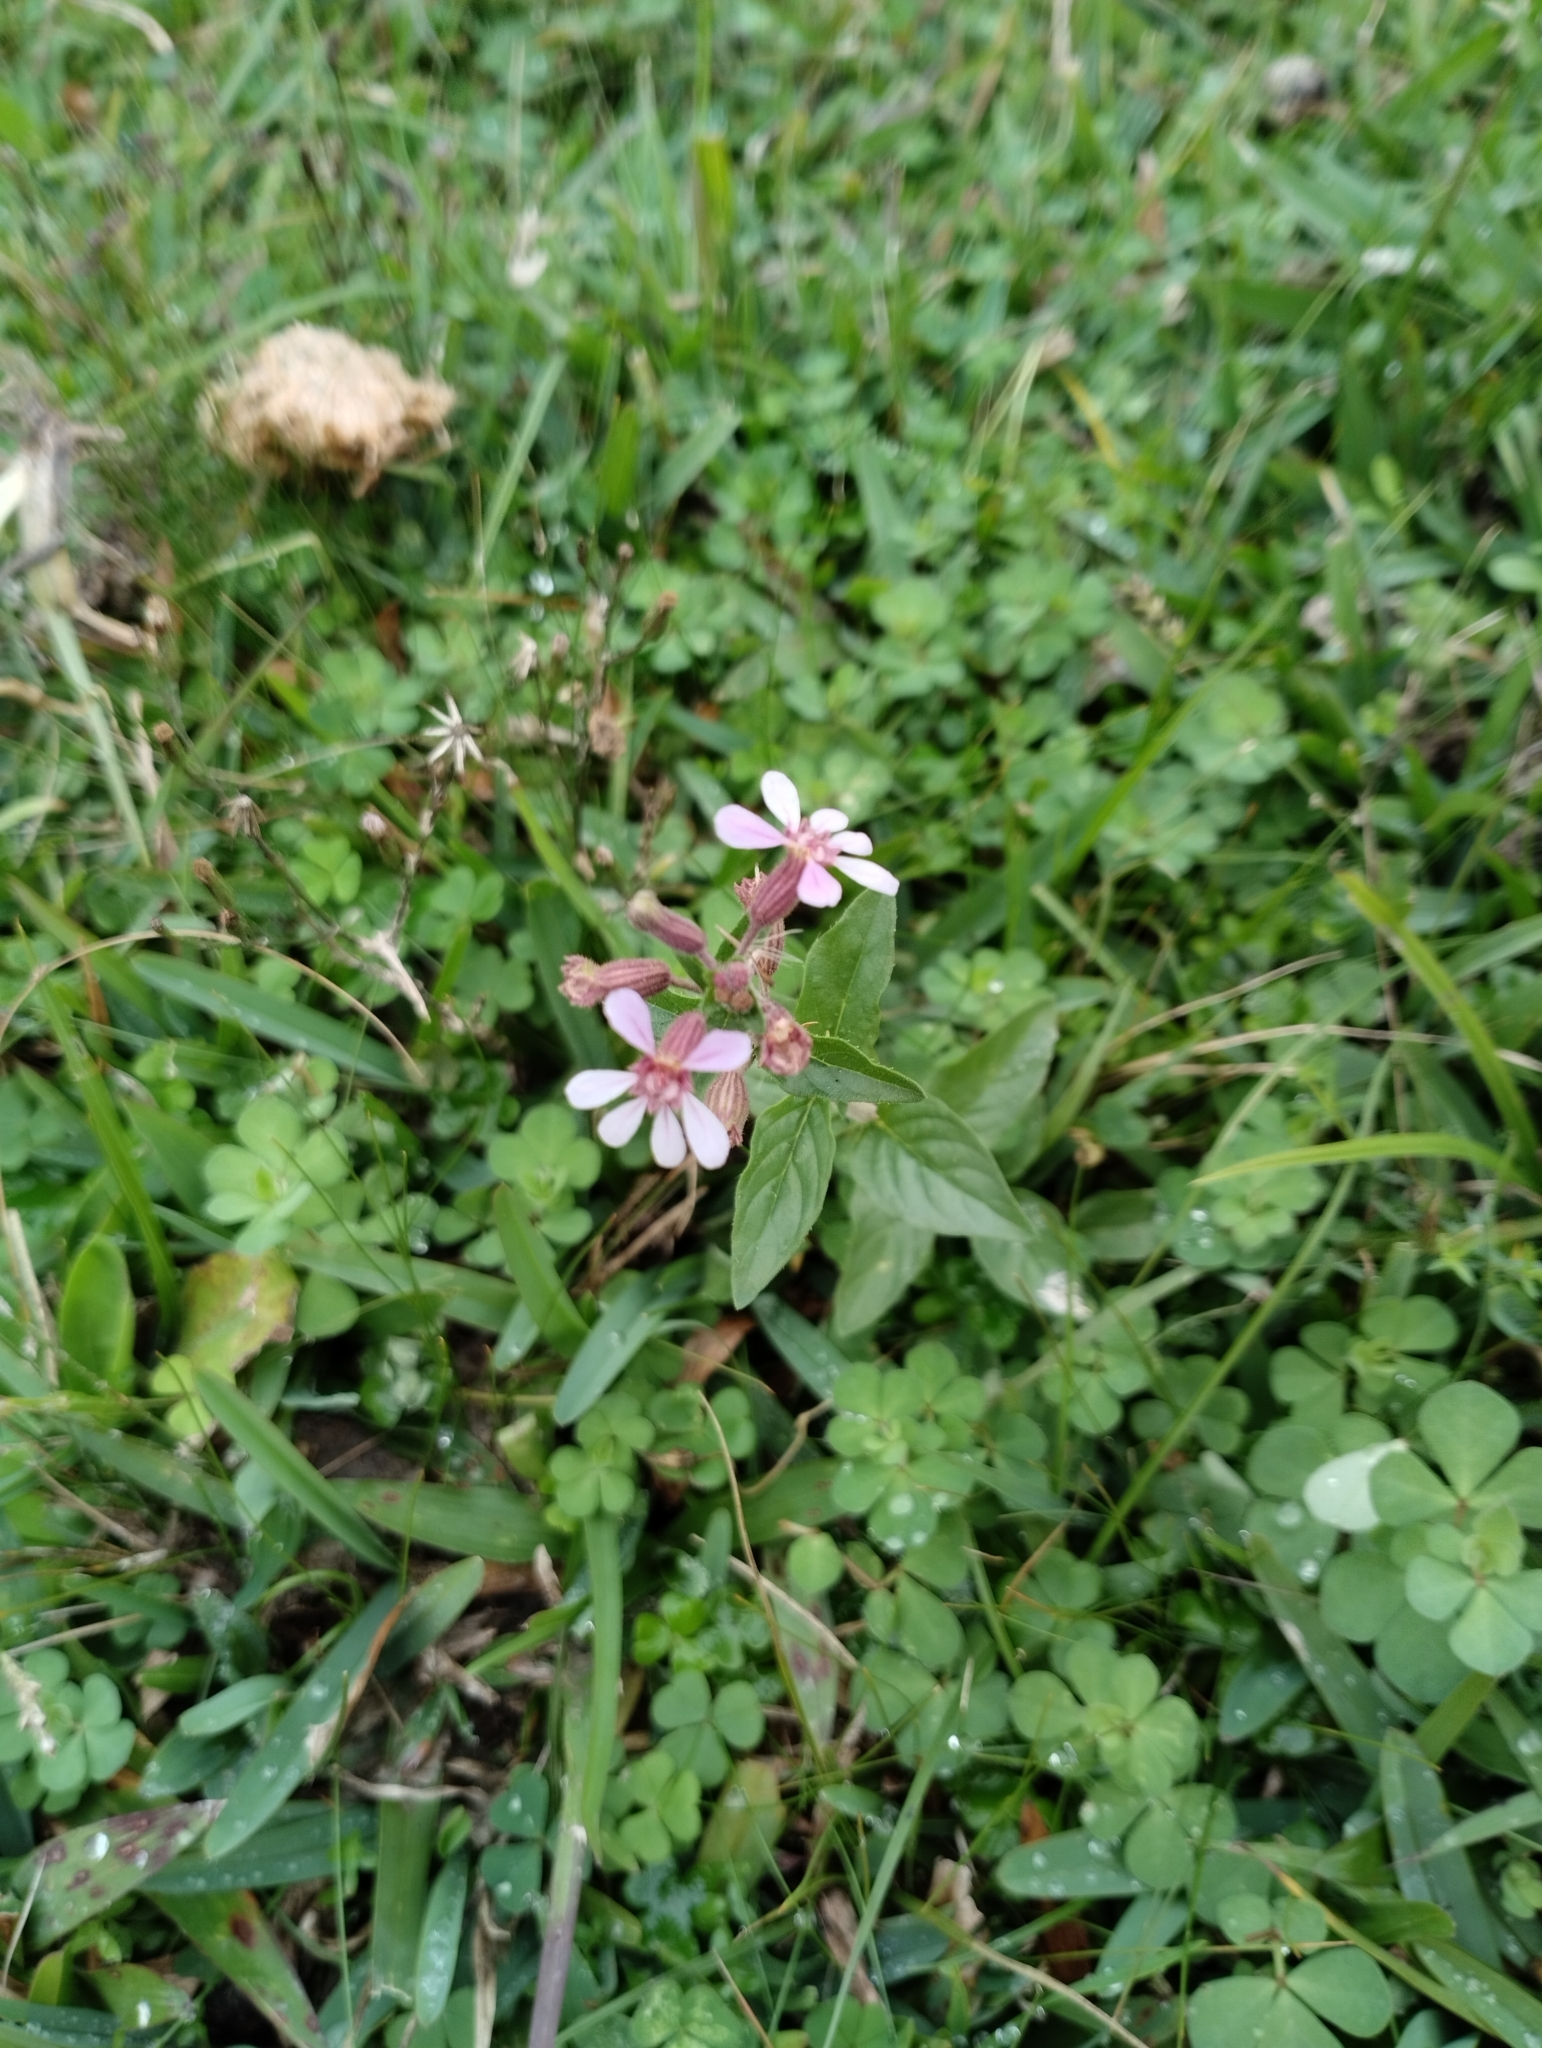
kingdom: Plantae
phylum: Tracheophyta
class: Magnoliopsida
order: Myrtales
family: Lythraceae
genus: Cuphea
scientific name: Cuphea racemosa
